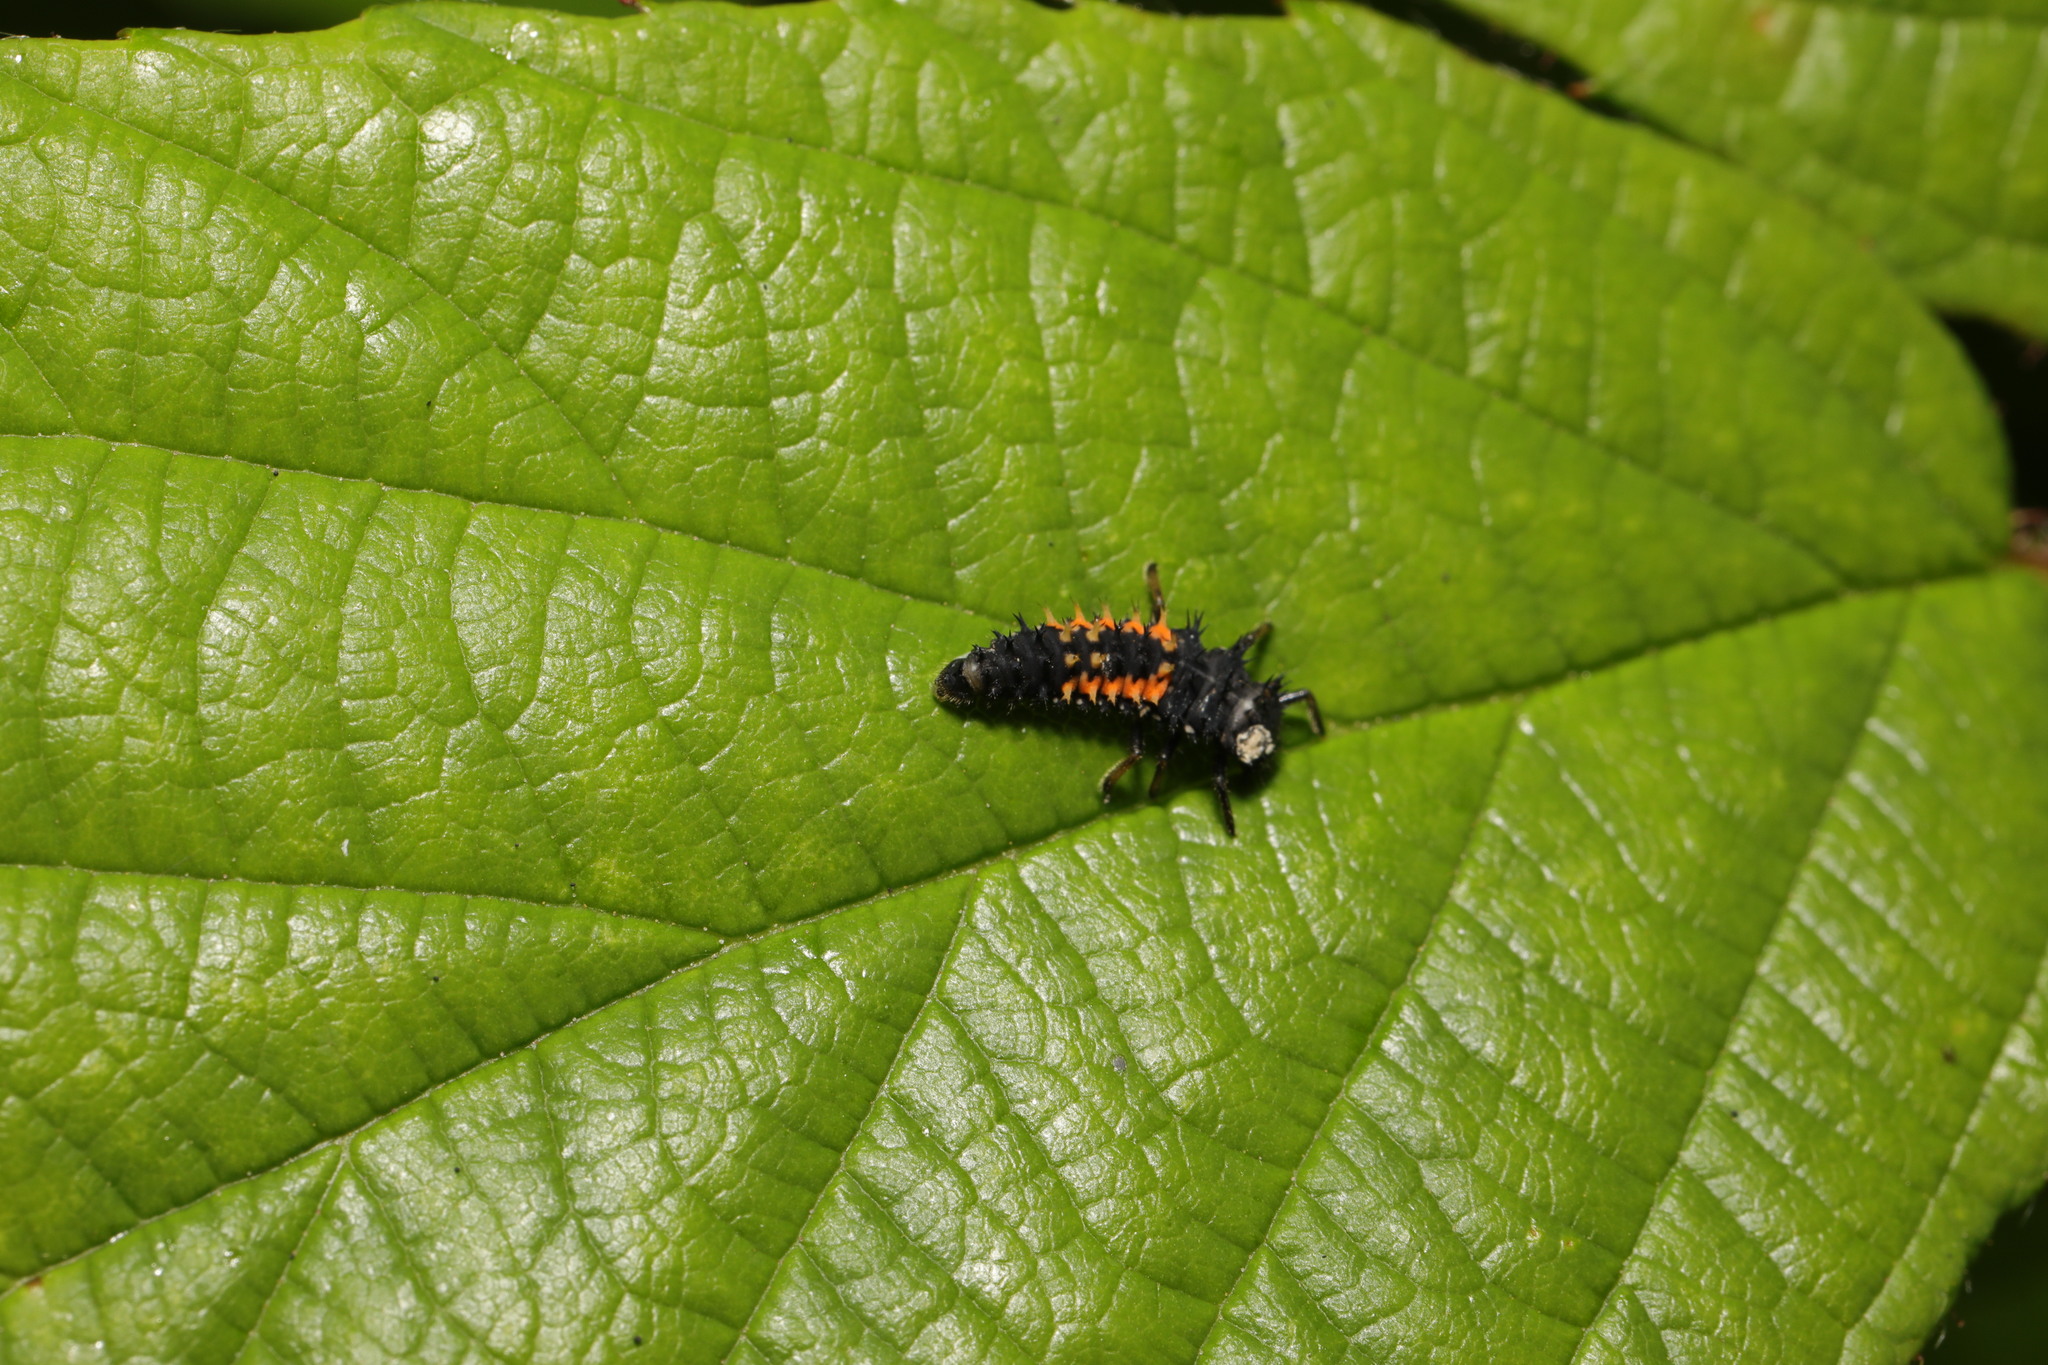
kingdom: Animalia
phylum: Arthropoda
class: Insecta
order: Coleoptera
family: Coccinellidae
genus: Harmonia
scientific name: Harmonia axyridis
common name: Harlequin ladybird
